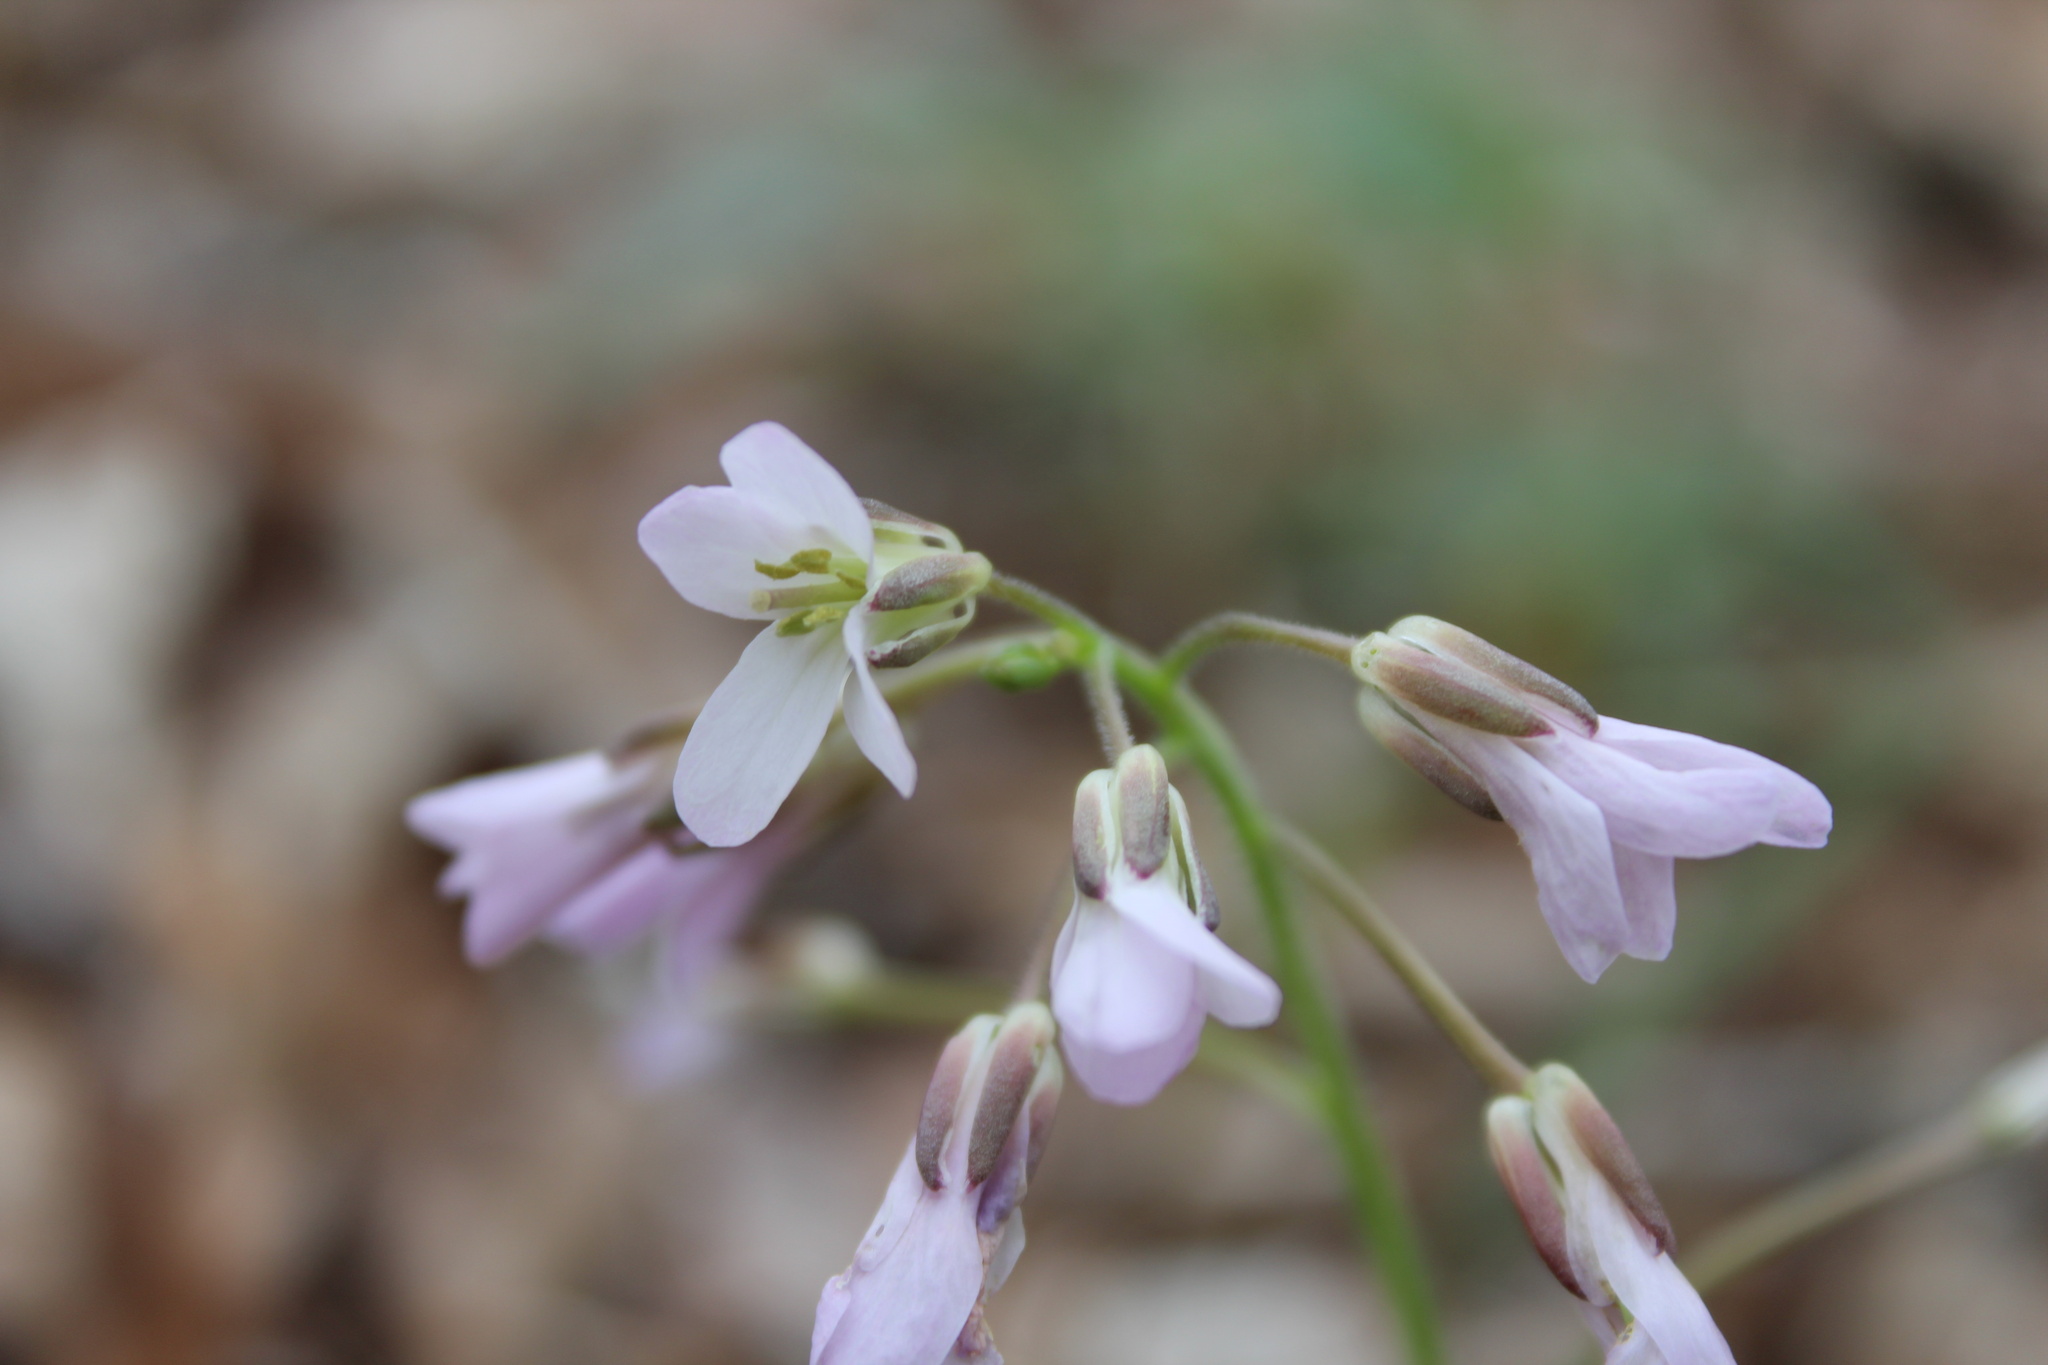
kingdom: Plantae
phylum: Tracheophyta
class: Magnoliopsida
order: Brassicales
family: Brassicaceae
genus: Cardamine
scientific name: Cardamine concatenata
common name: Cut-leaf toothcup
